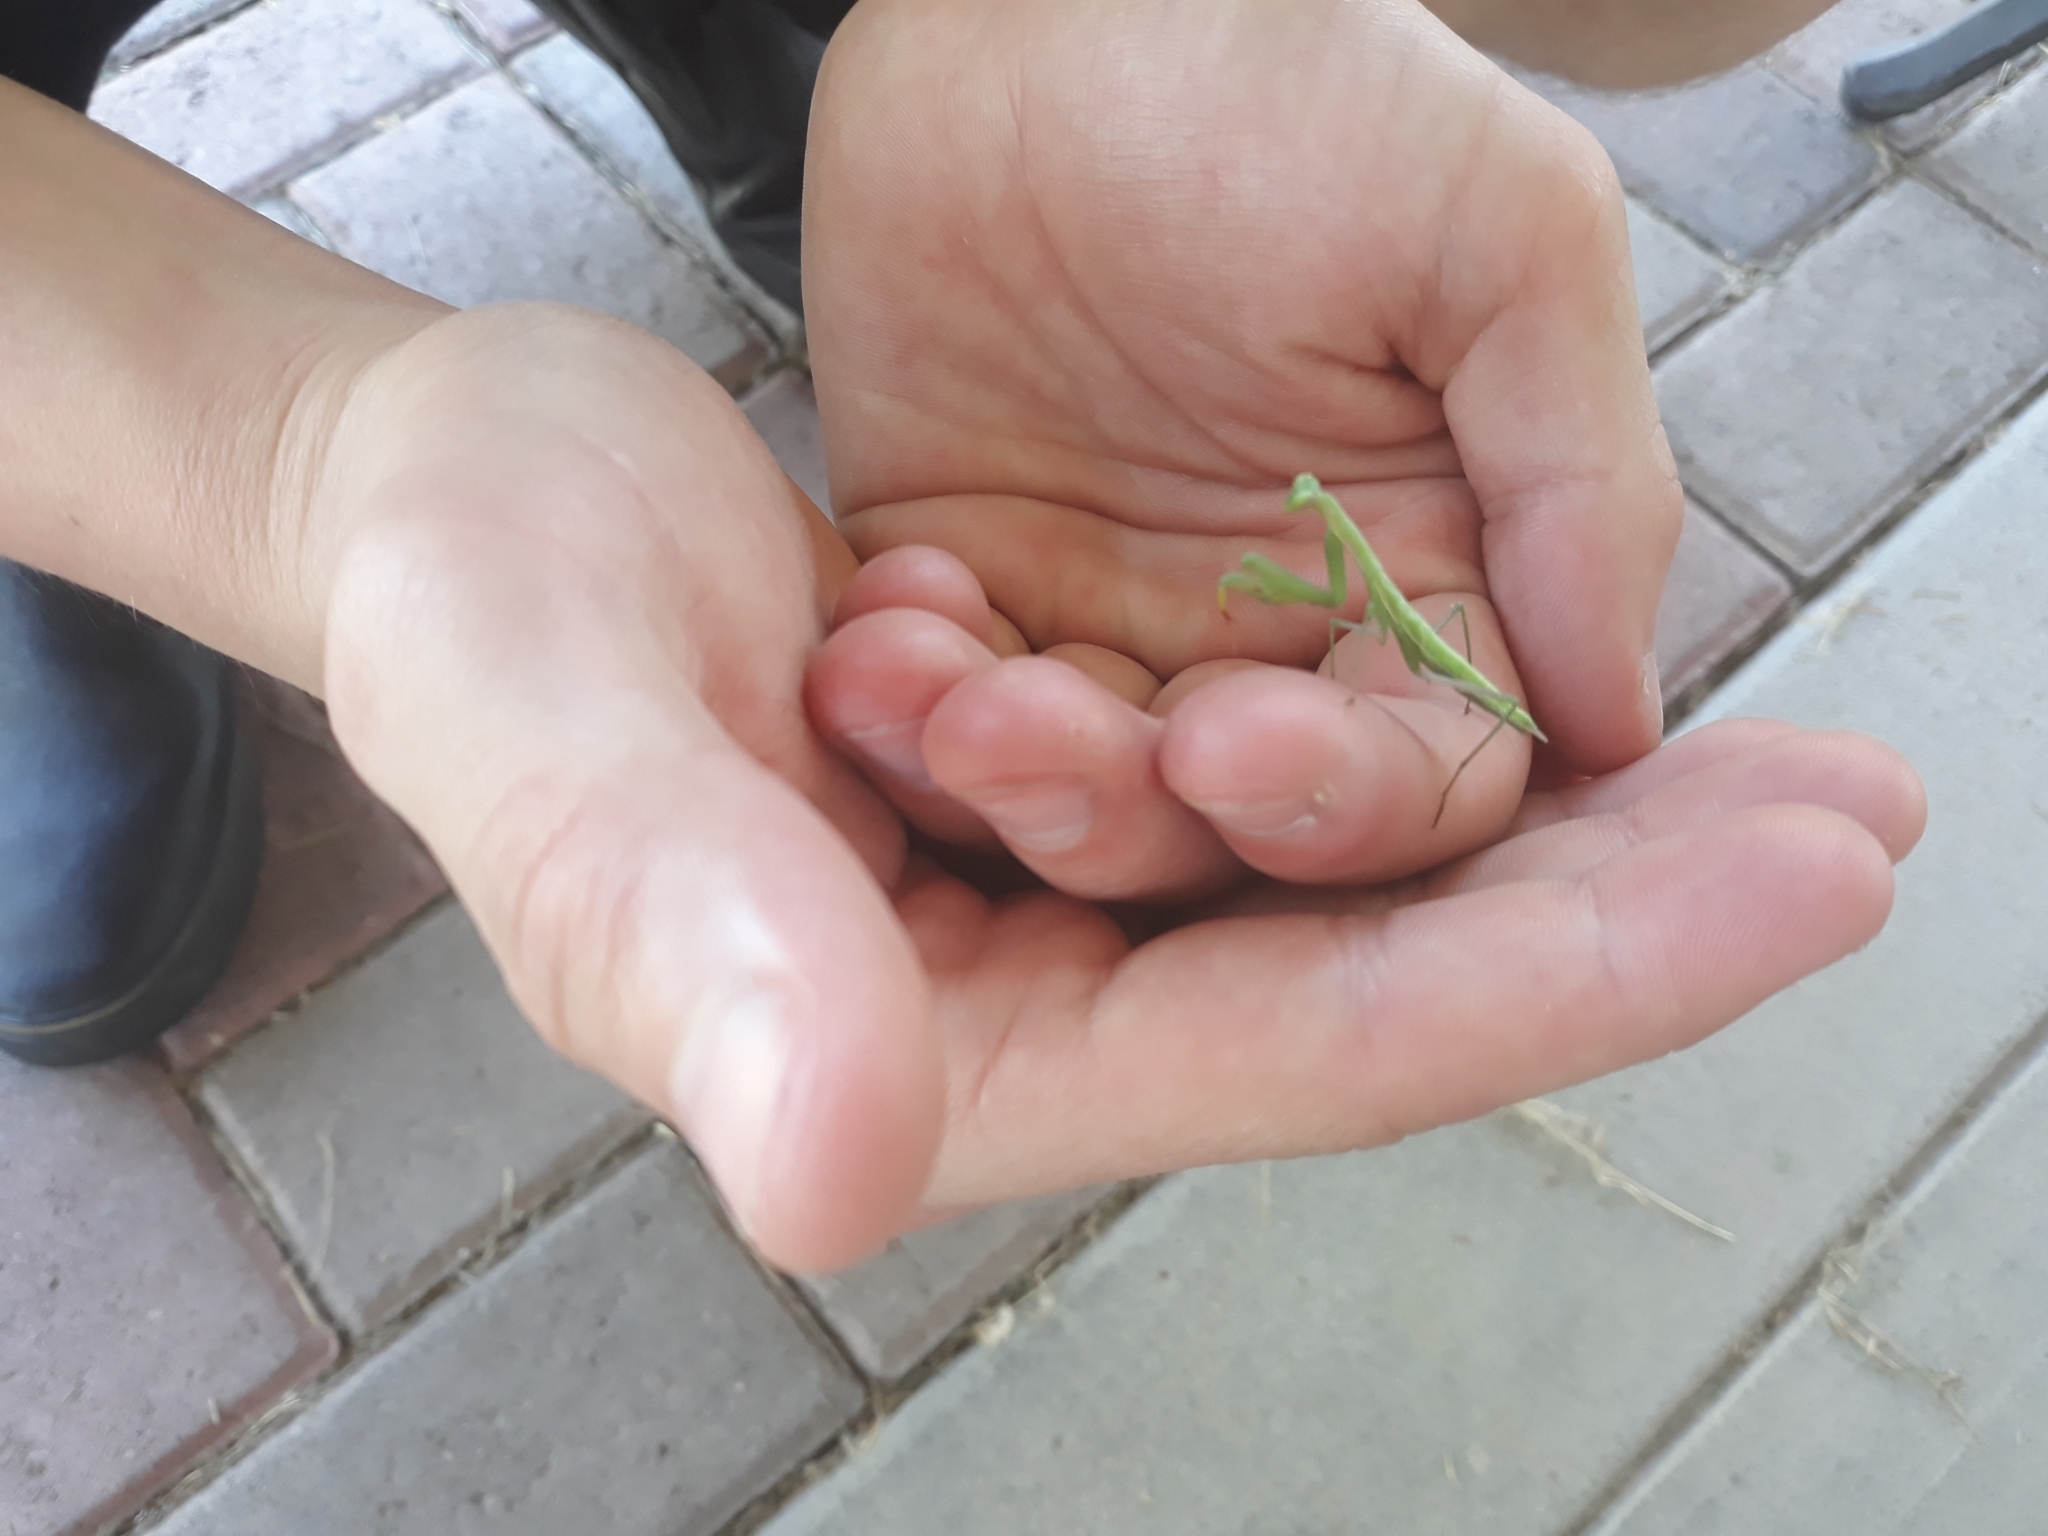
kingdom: Animalia
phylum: Arthropoda
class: Insecta
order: Mantodea
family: Mantidae
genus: Mantis
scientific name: Mantis religiosa
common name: Praying mantis
